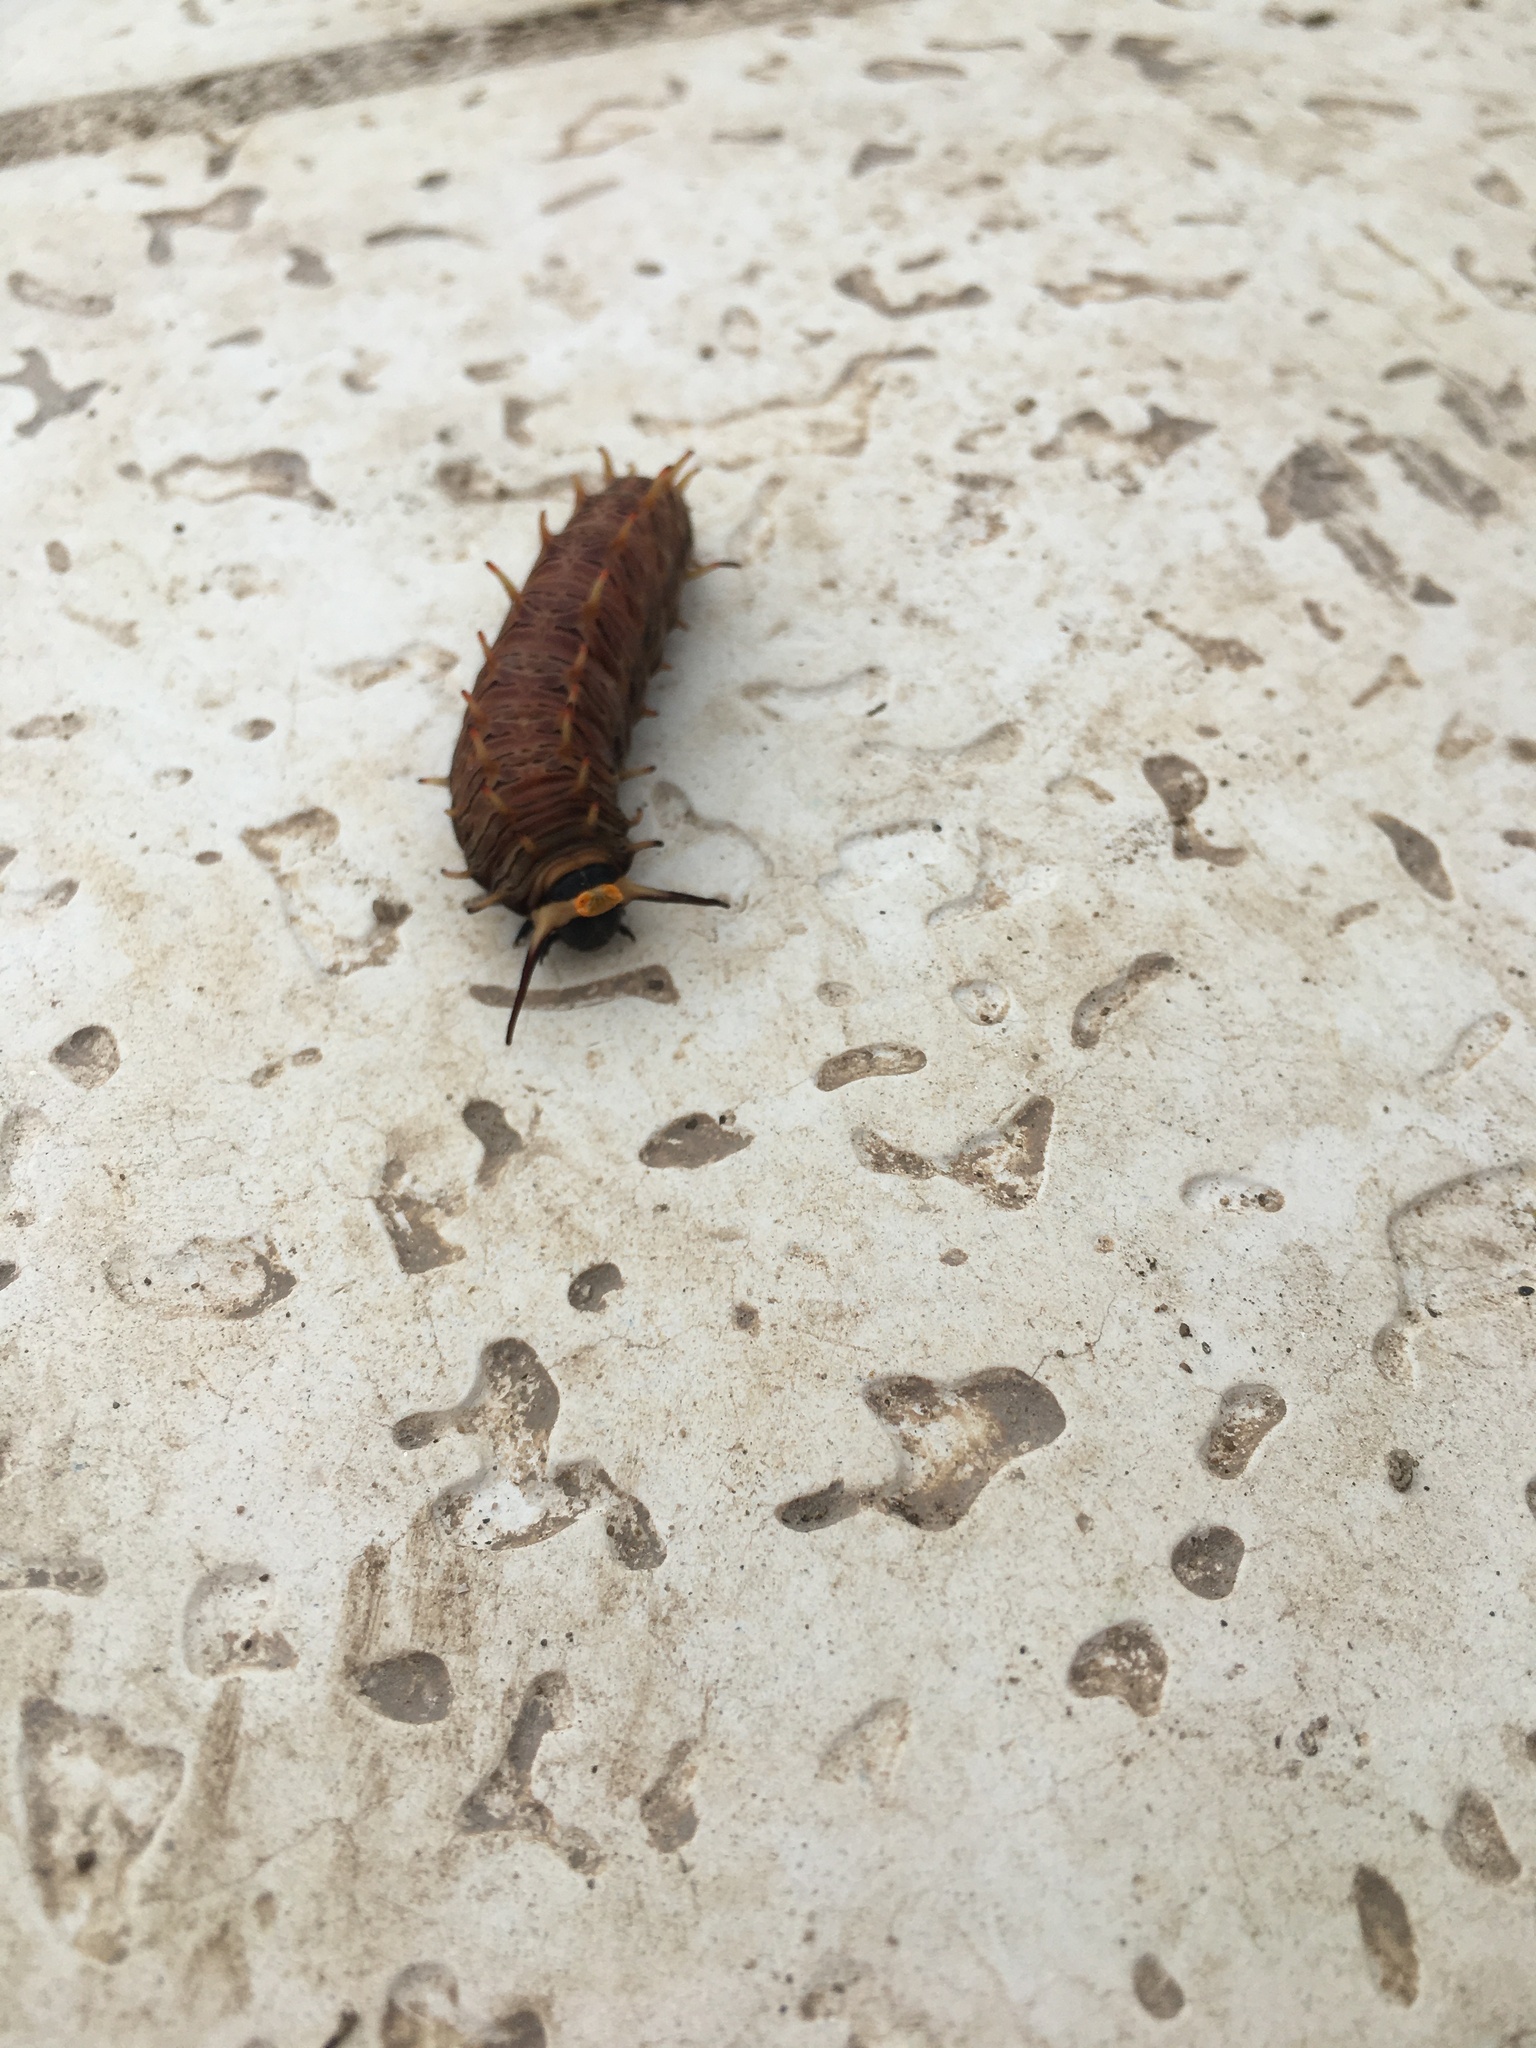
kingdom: Animalia
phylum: Arthropoda
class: Insecta
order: Lepidoptera
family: Papilionidae
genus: Battus
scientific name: Battus polydamas
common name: Polydamas swallowtail
